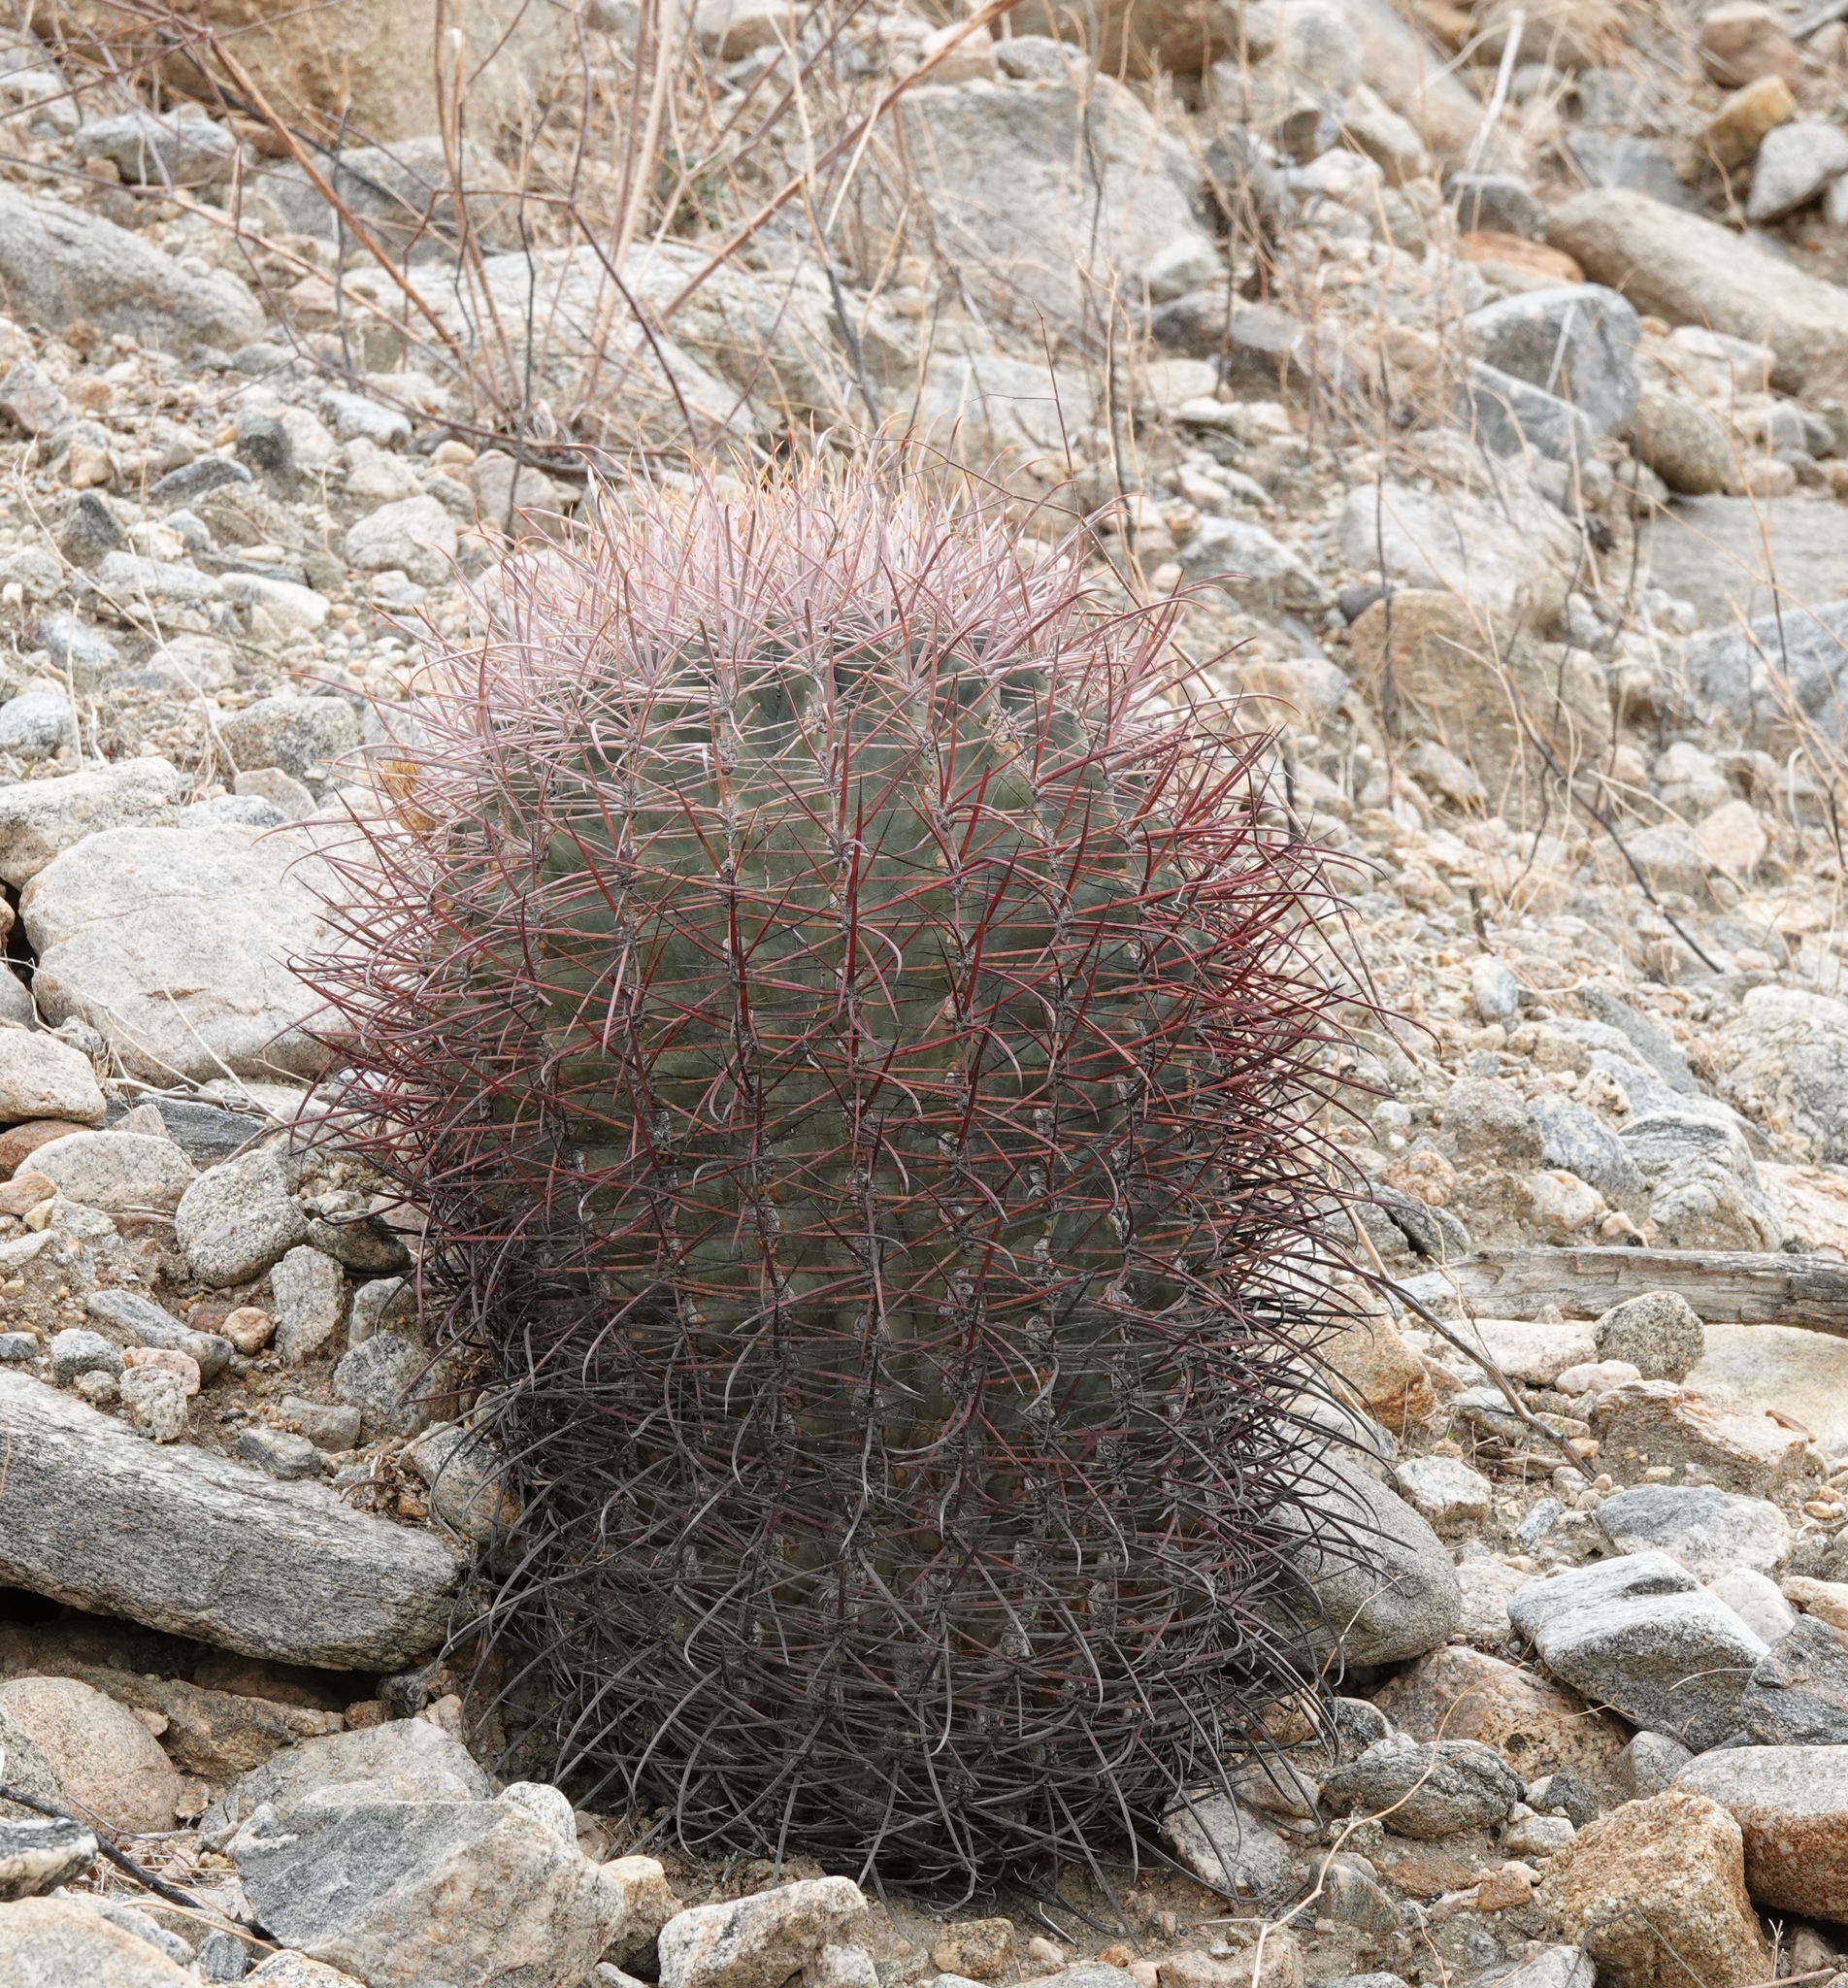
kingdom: Plantae
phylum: Tracheophyta
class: Magnoliopsida
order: Caryophyllales
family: Cactaceae
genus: Ferocactus
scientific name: Ferocactus cylindraceus
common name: California barrel cactus
